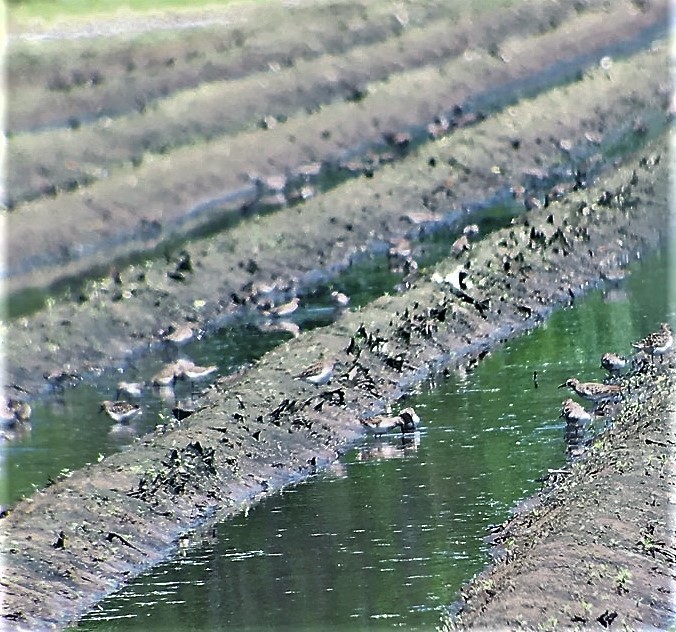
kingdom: Animalia
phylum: Chordata
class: Aves
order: Charadriiformes
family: Scolopacidae
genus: Calidris
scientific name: Calidris pusilla
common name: Semipalmated sandpiper
